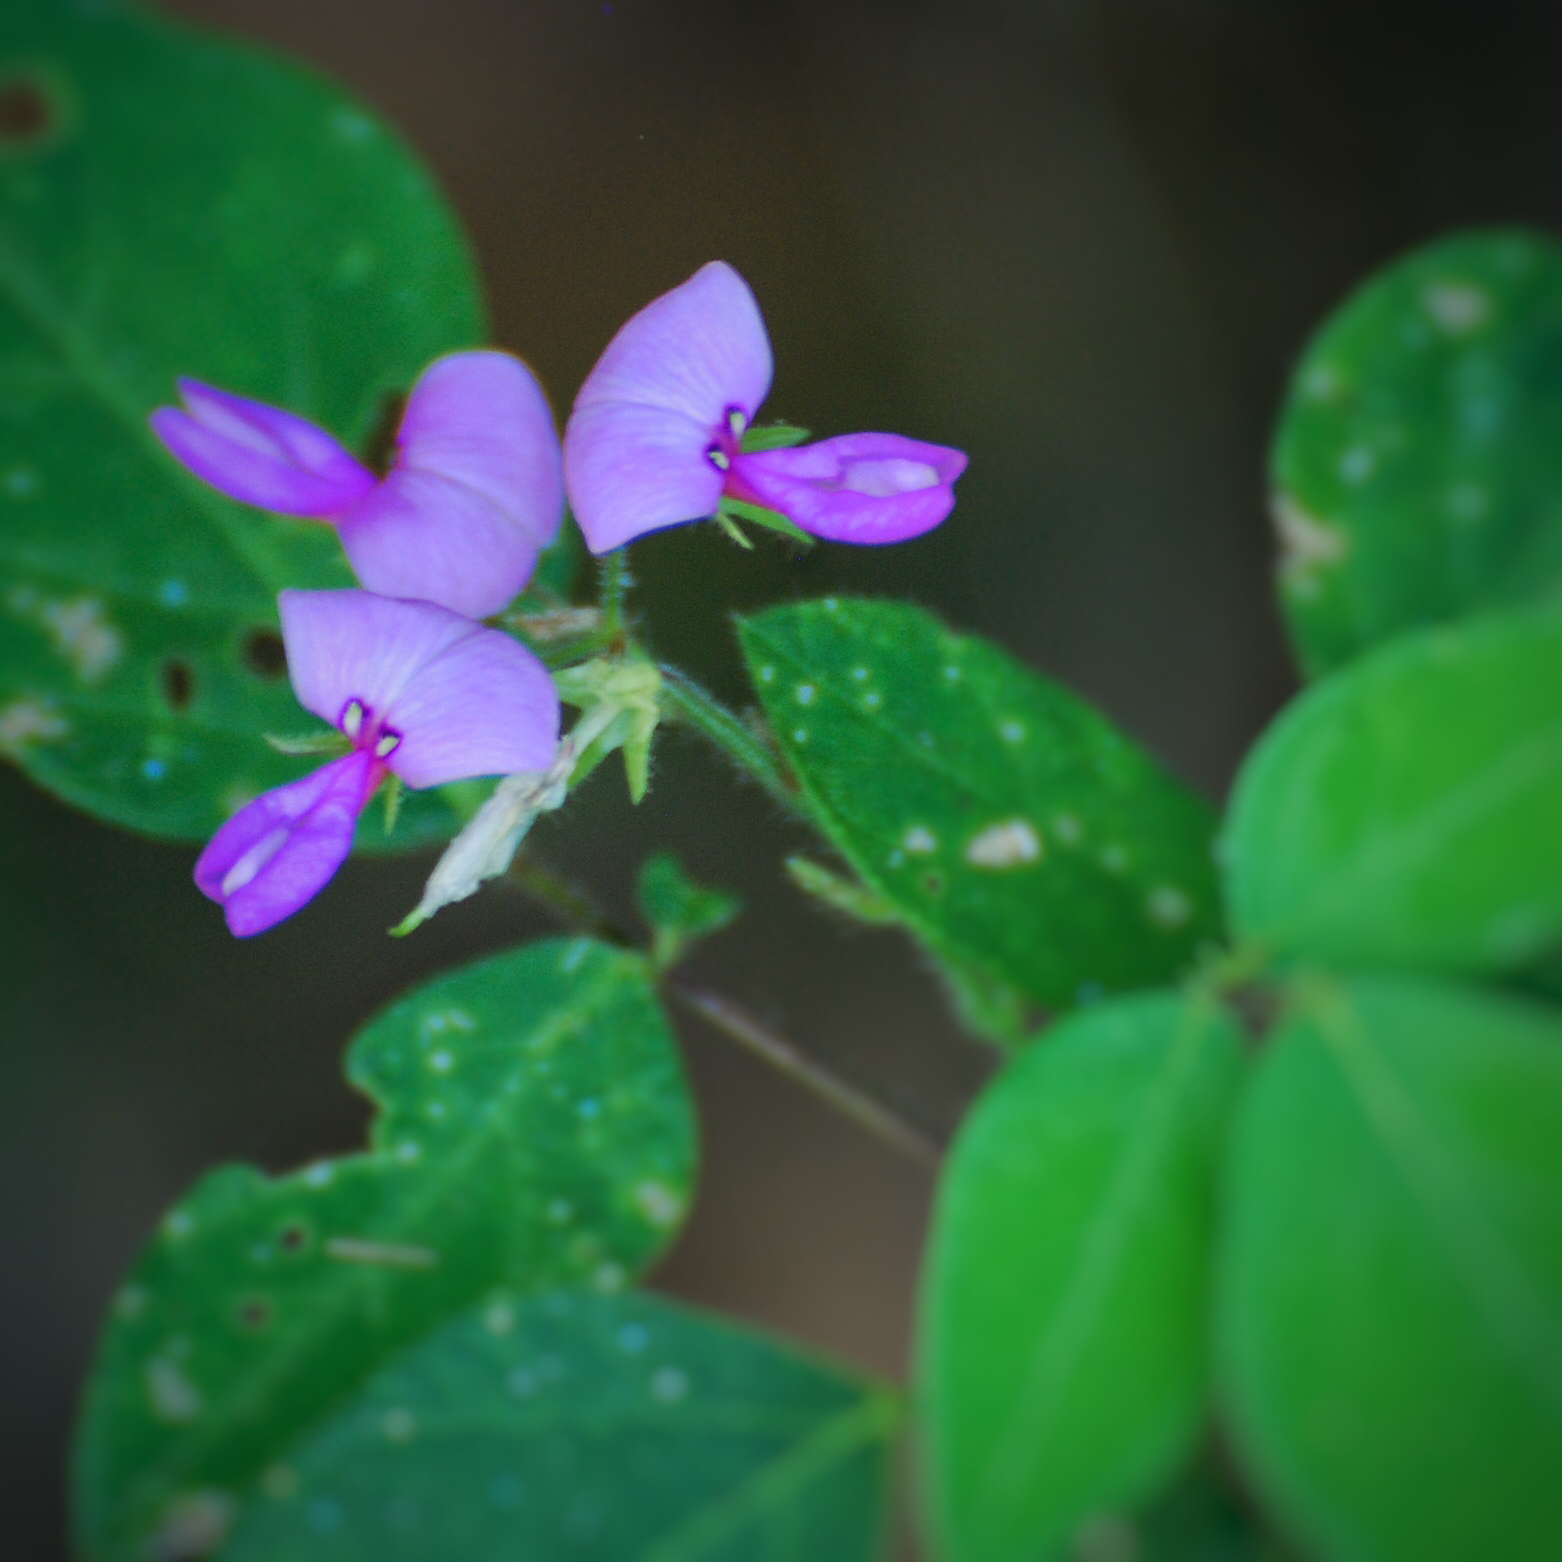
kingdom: Plantae
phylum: Tracheophyta
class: Magnoliopsida
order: Fabales
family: Fabaceae
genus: Desmodium
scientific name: Desmodium paniculatum
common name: Panicled tick-clover
